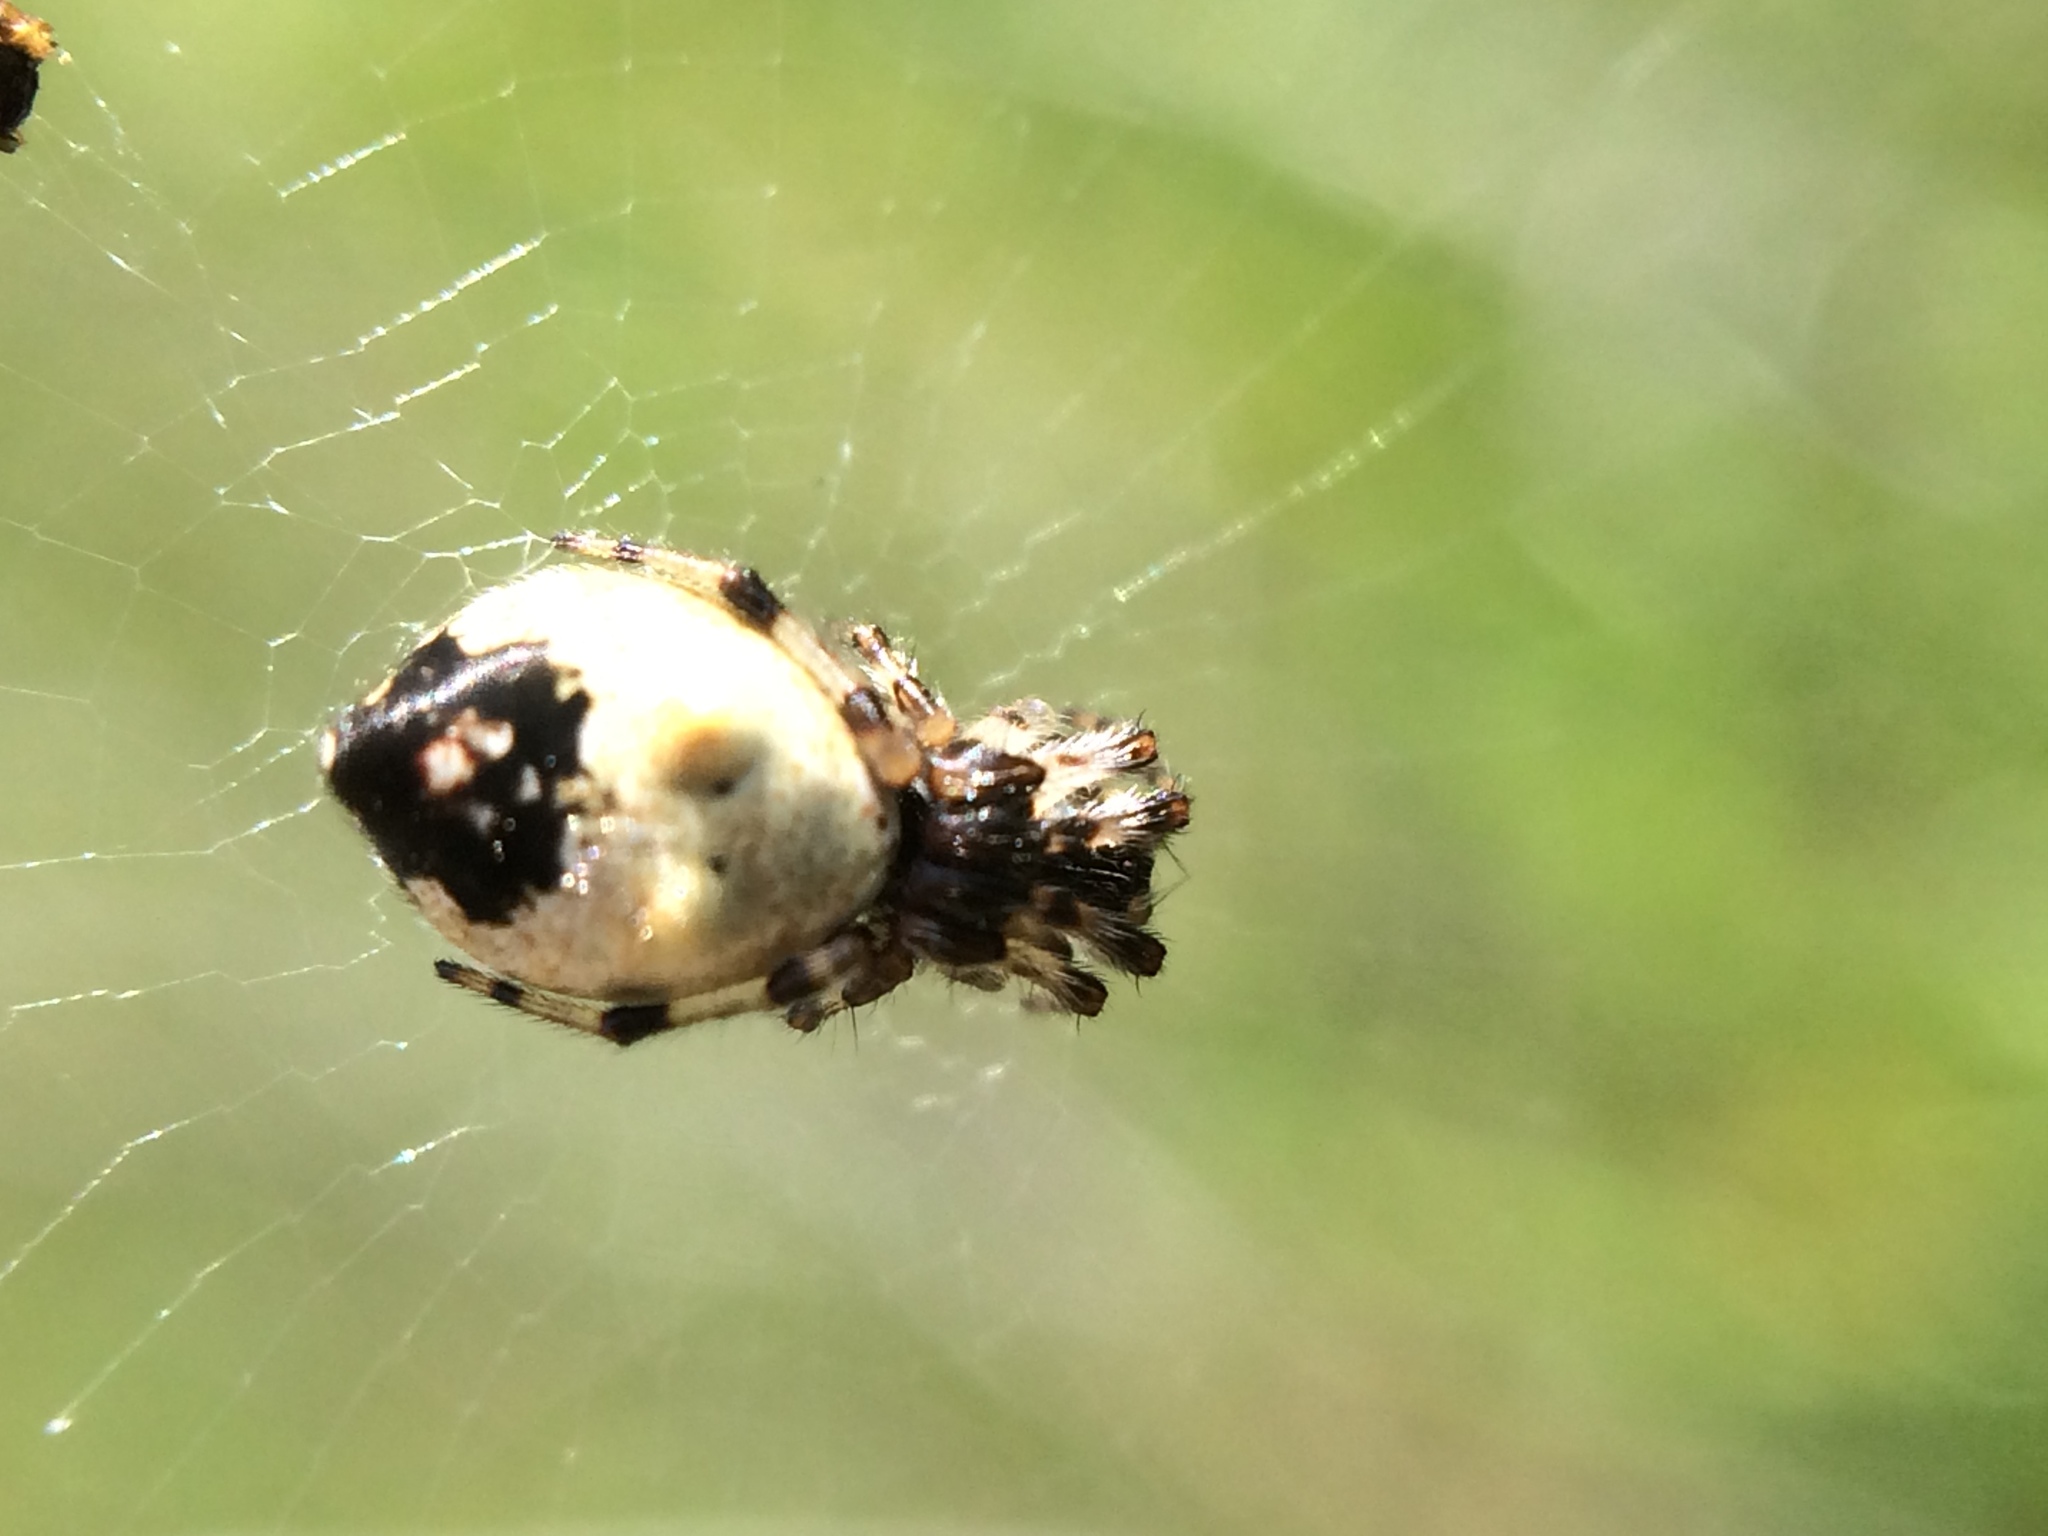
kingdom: Animalia
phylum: Arthropoda
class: Arachnida
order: Araneae
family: Araneidae
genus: Cyclosa
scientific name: Cyclosa turbinata
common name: Orb weavers
